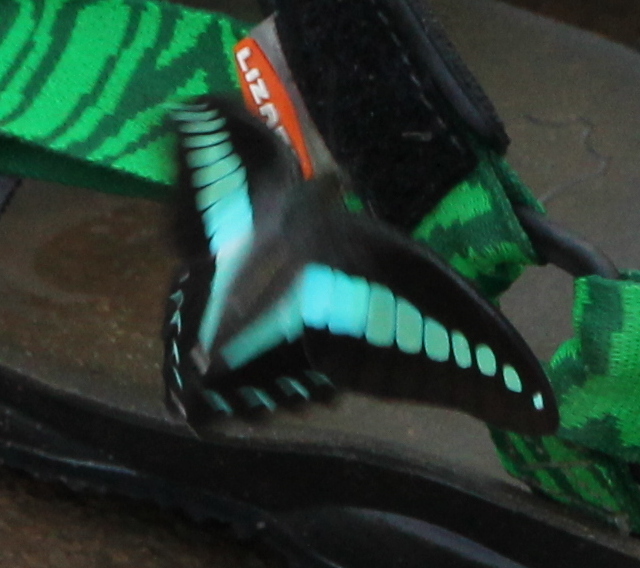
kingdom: Fungi
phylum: Ascomycota
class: Sordariomycetes
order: Microascales
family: Microascaceae
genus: Graphium
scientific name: Graphium sarpedon
